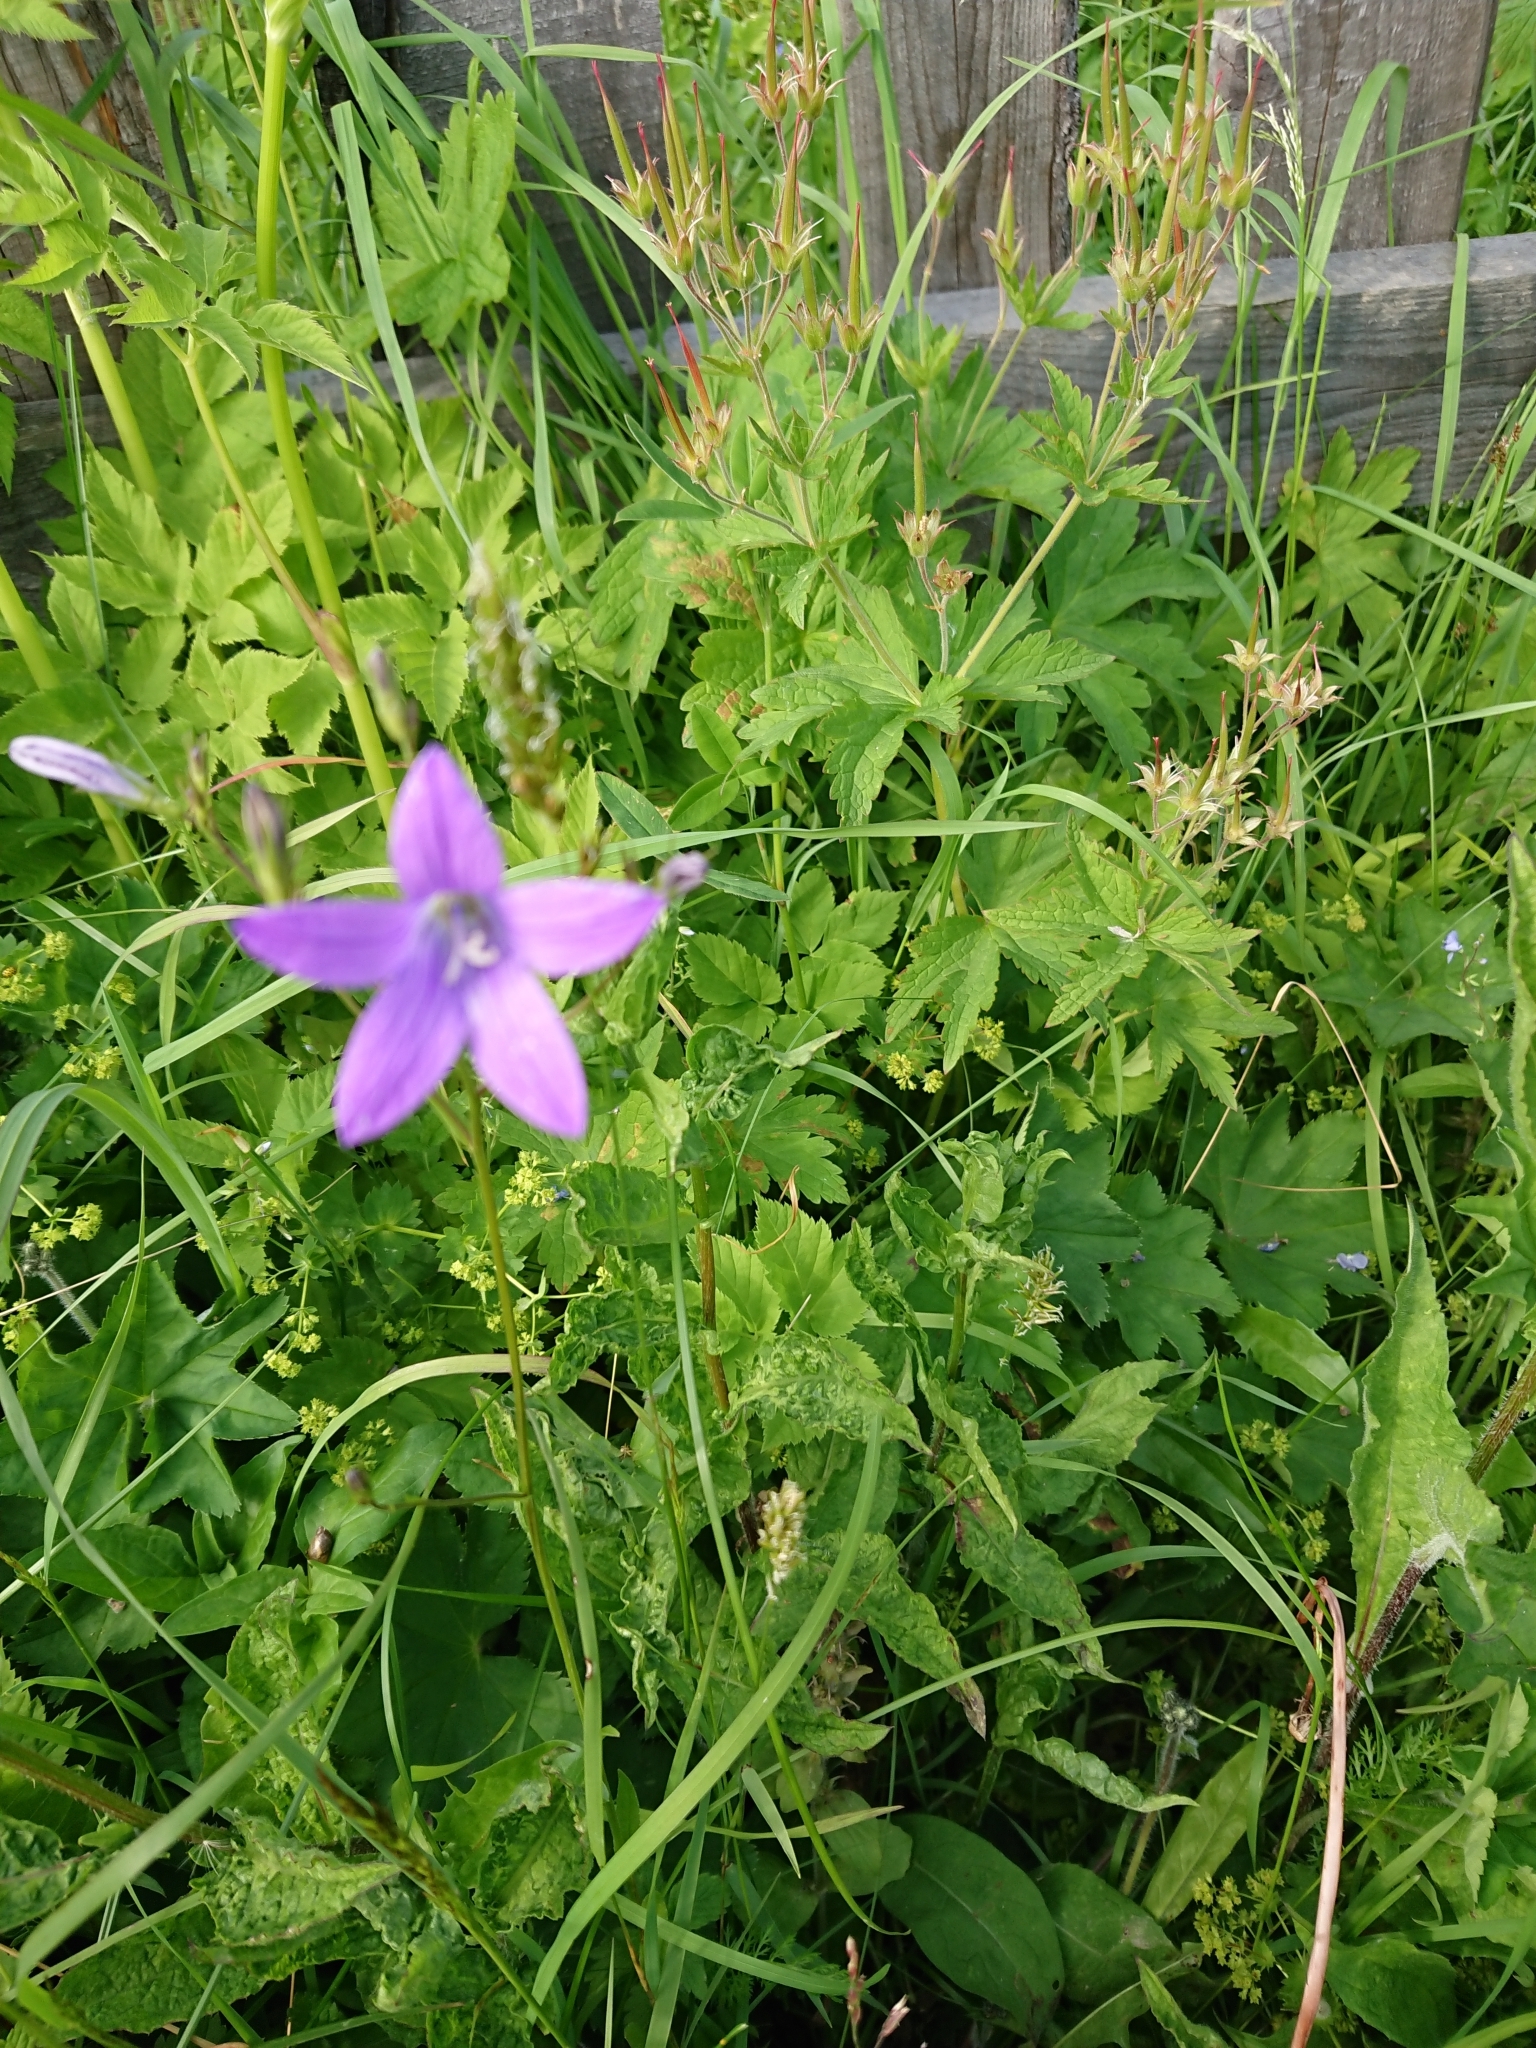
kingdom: Plantae
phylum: Tracheophyta
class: Magnoliopsida
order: Asterales
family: Campanulaceae
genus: Campanula
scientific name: Campanula patula
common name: Spreading bellflower
